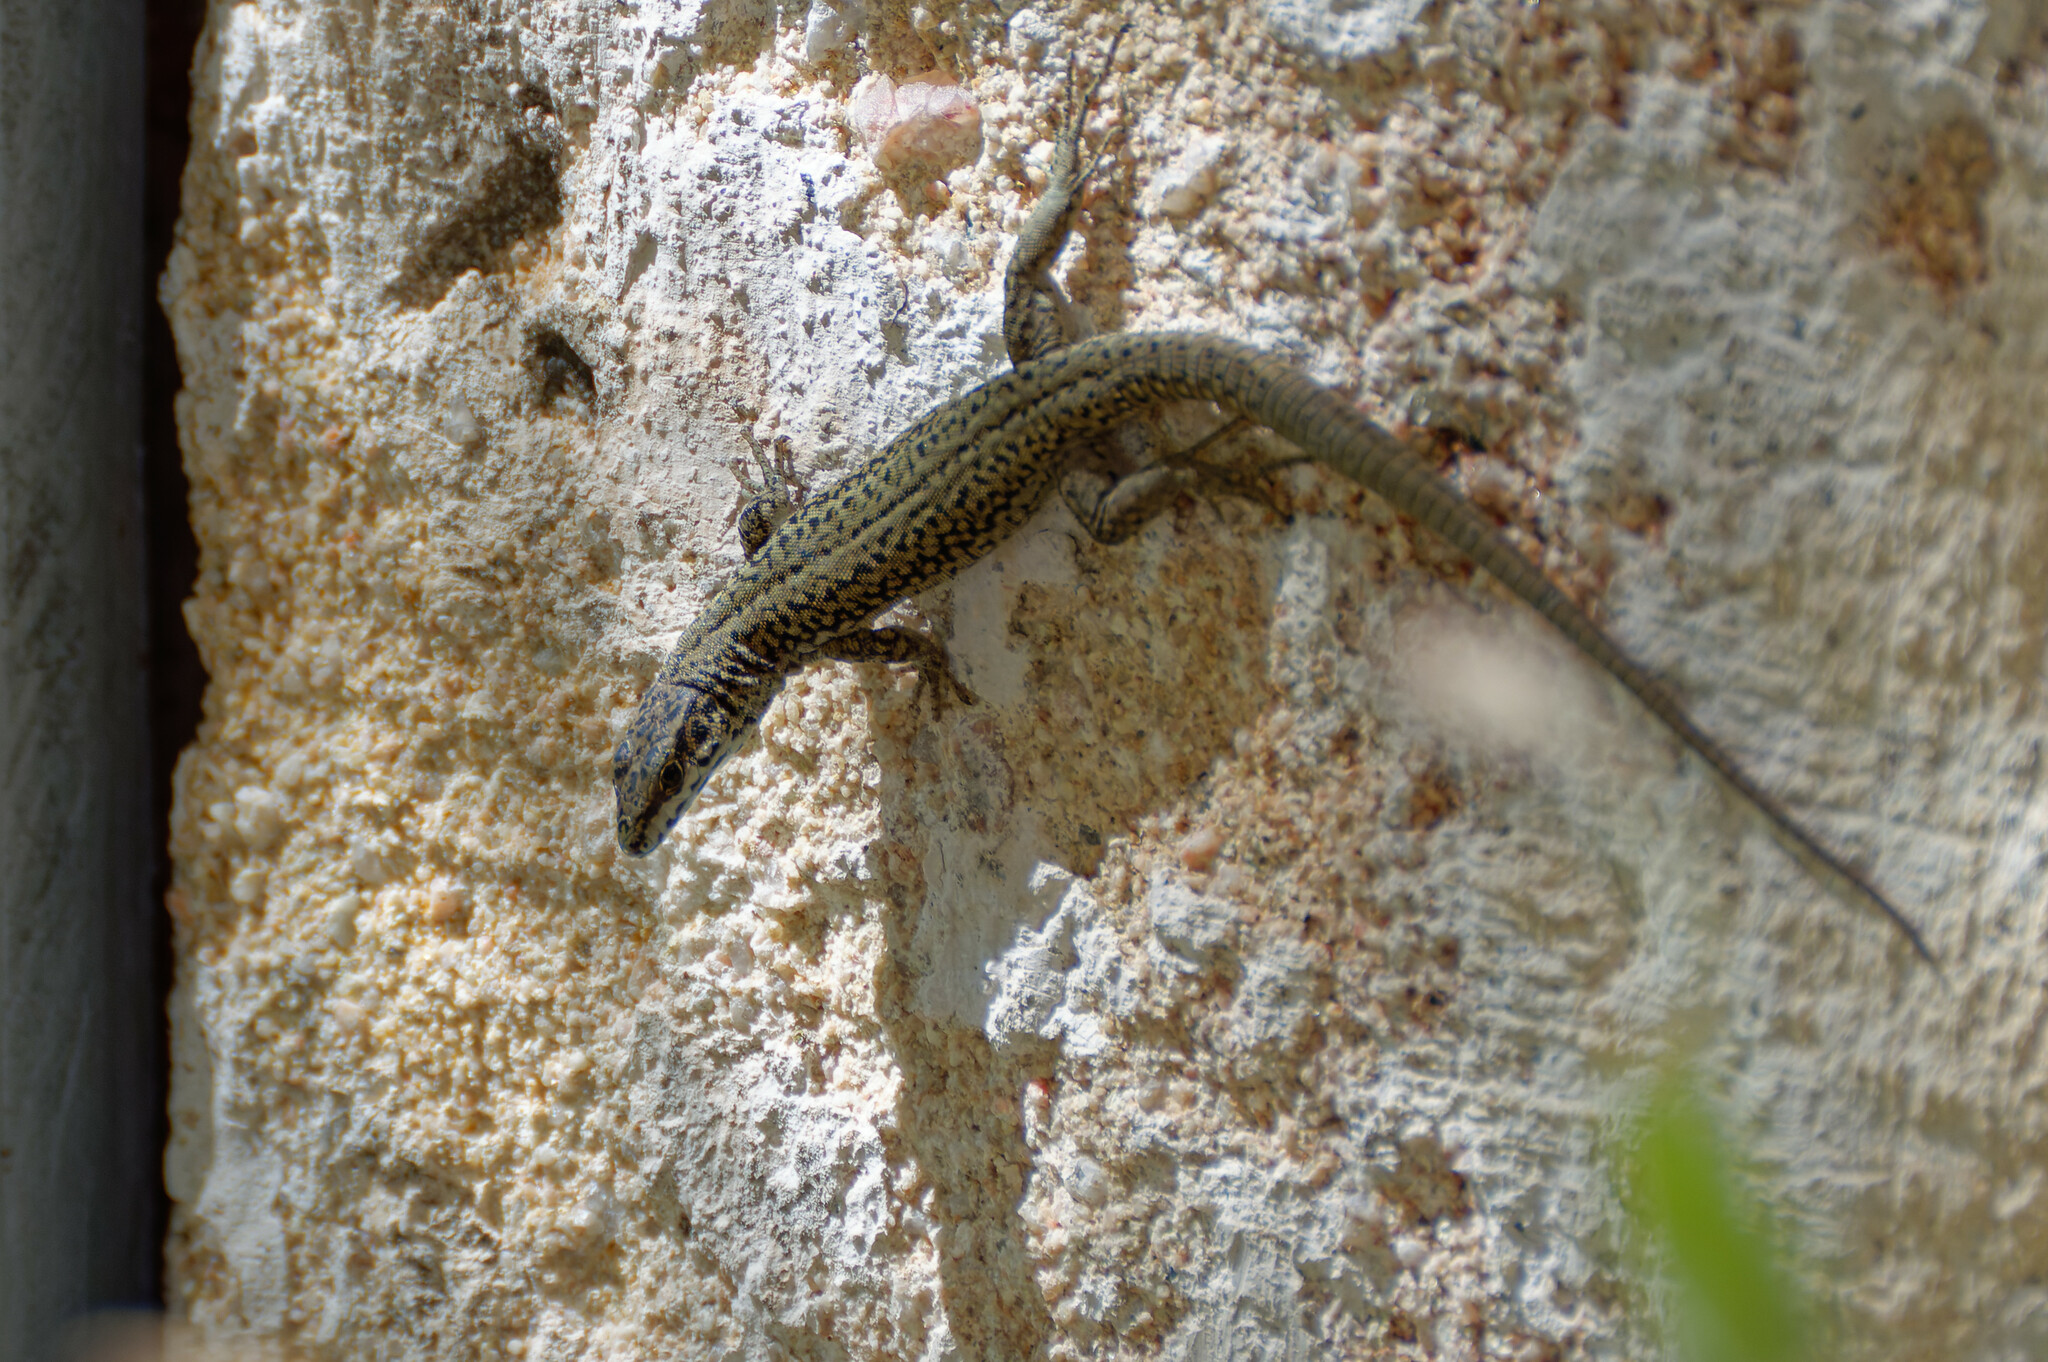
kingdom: Animalia
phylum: Chordata
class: Squamata
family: Lacertidae
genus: Podarcis
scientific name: Podarcis liolepis
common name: Catalonian wall lizard
